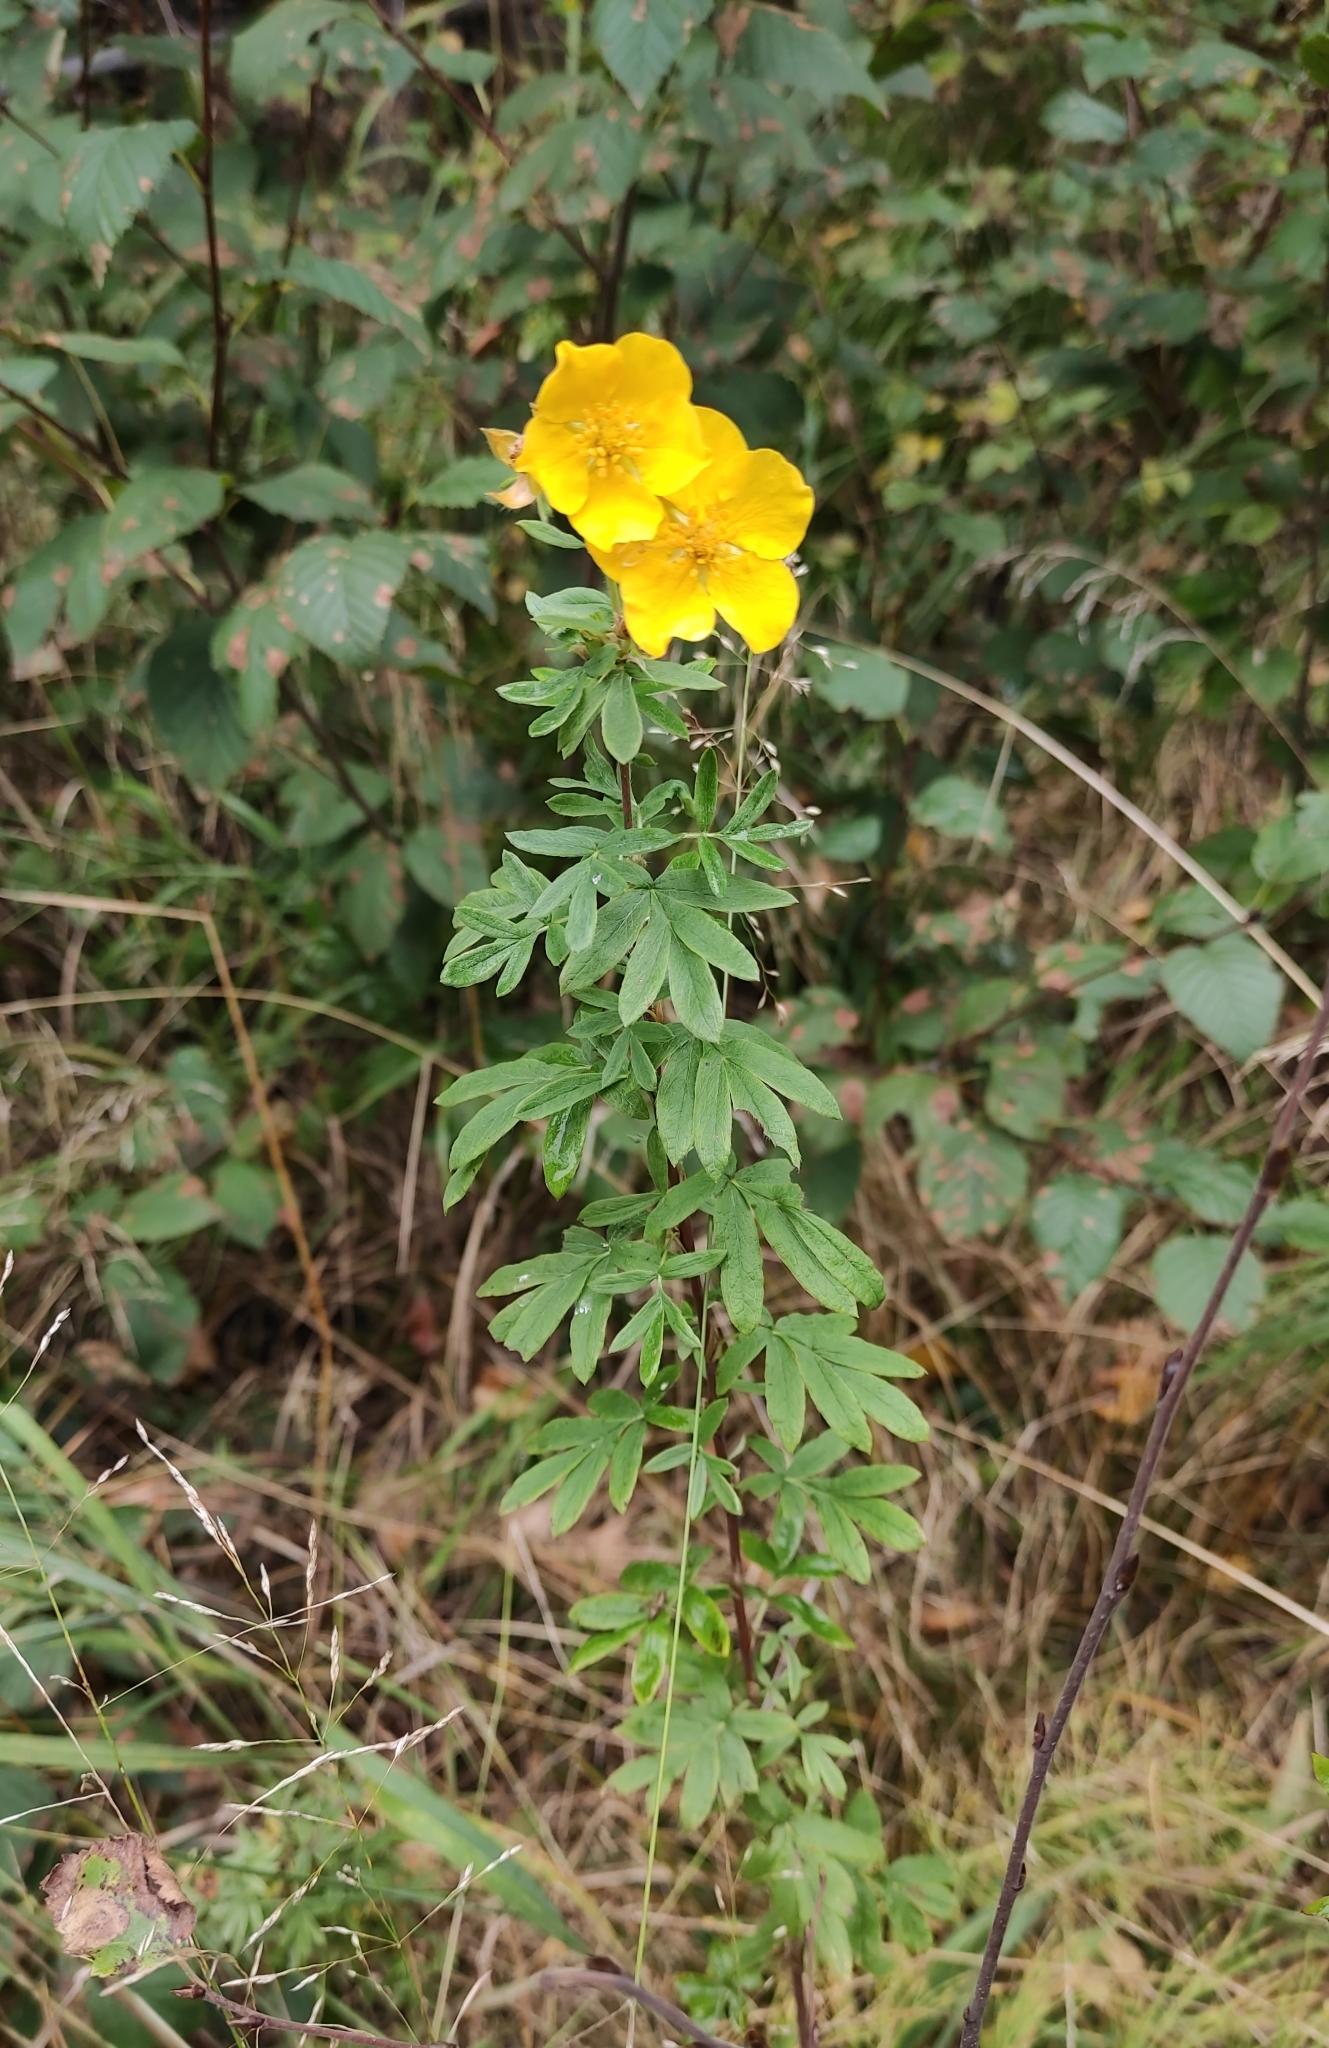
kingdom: Plantae
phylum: Tracheophyta
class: Magnoliopsida
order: Rosales
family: Rosaceae
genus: Dasiphora
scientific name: Dasiphora fruticosa
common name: Shrubby cinquefoil
